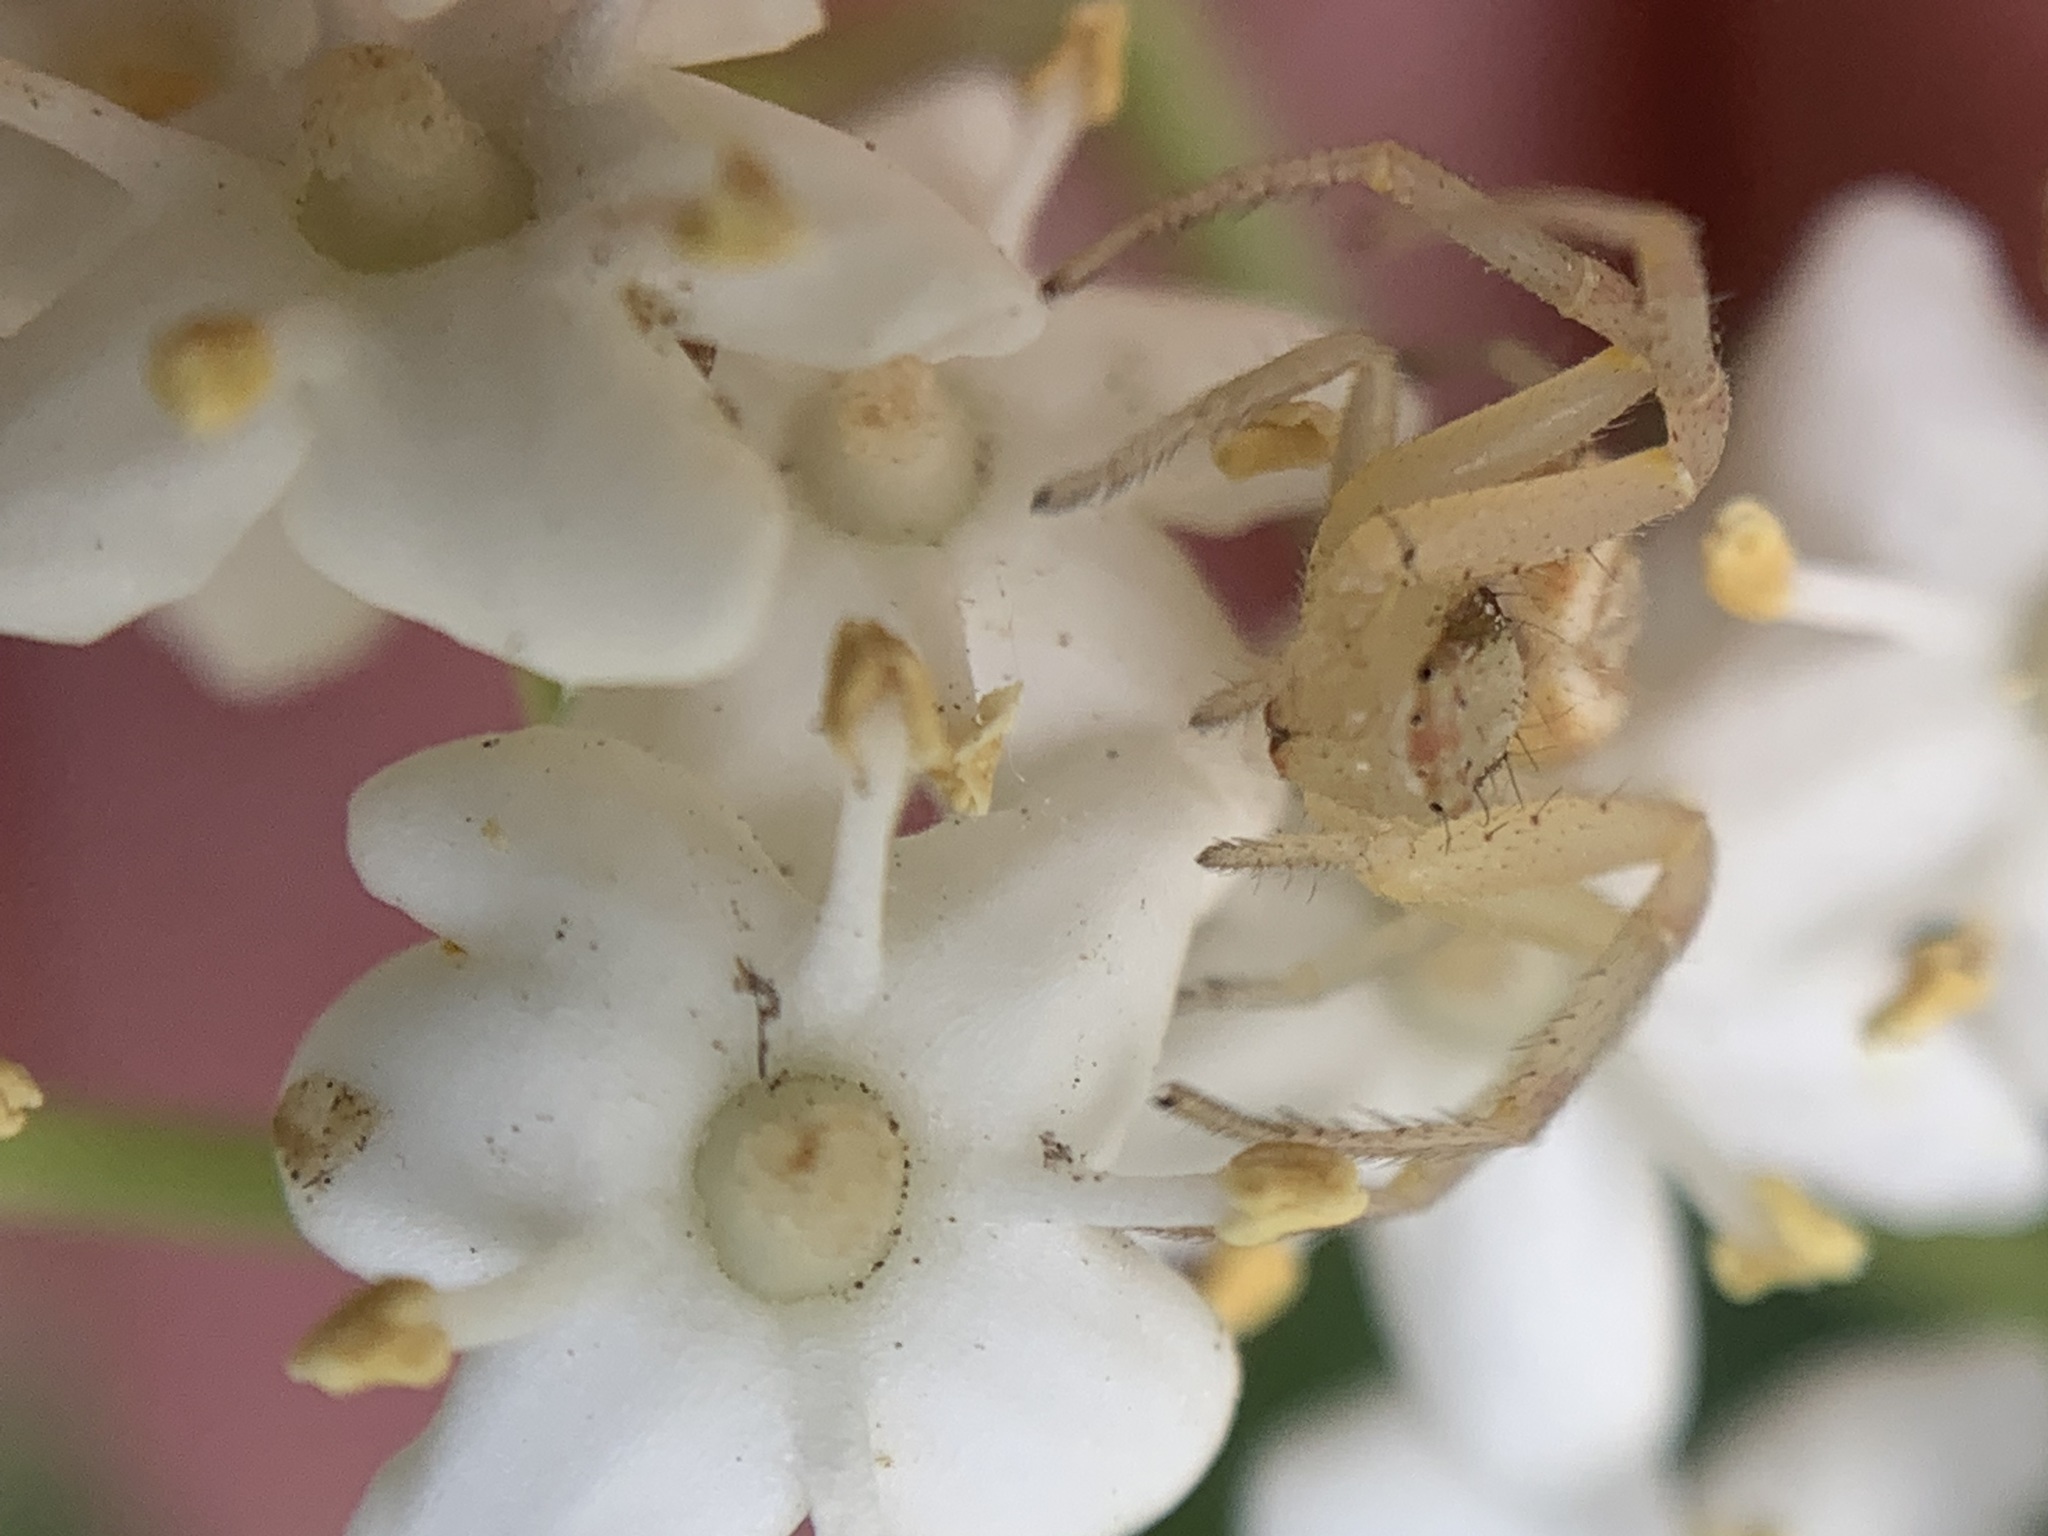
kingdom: Animalia
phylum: Arthropoda
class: Arachnida
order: Araneae
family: Thomisidae
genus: Misumenops
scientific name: Misumenops
